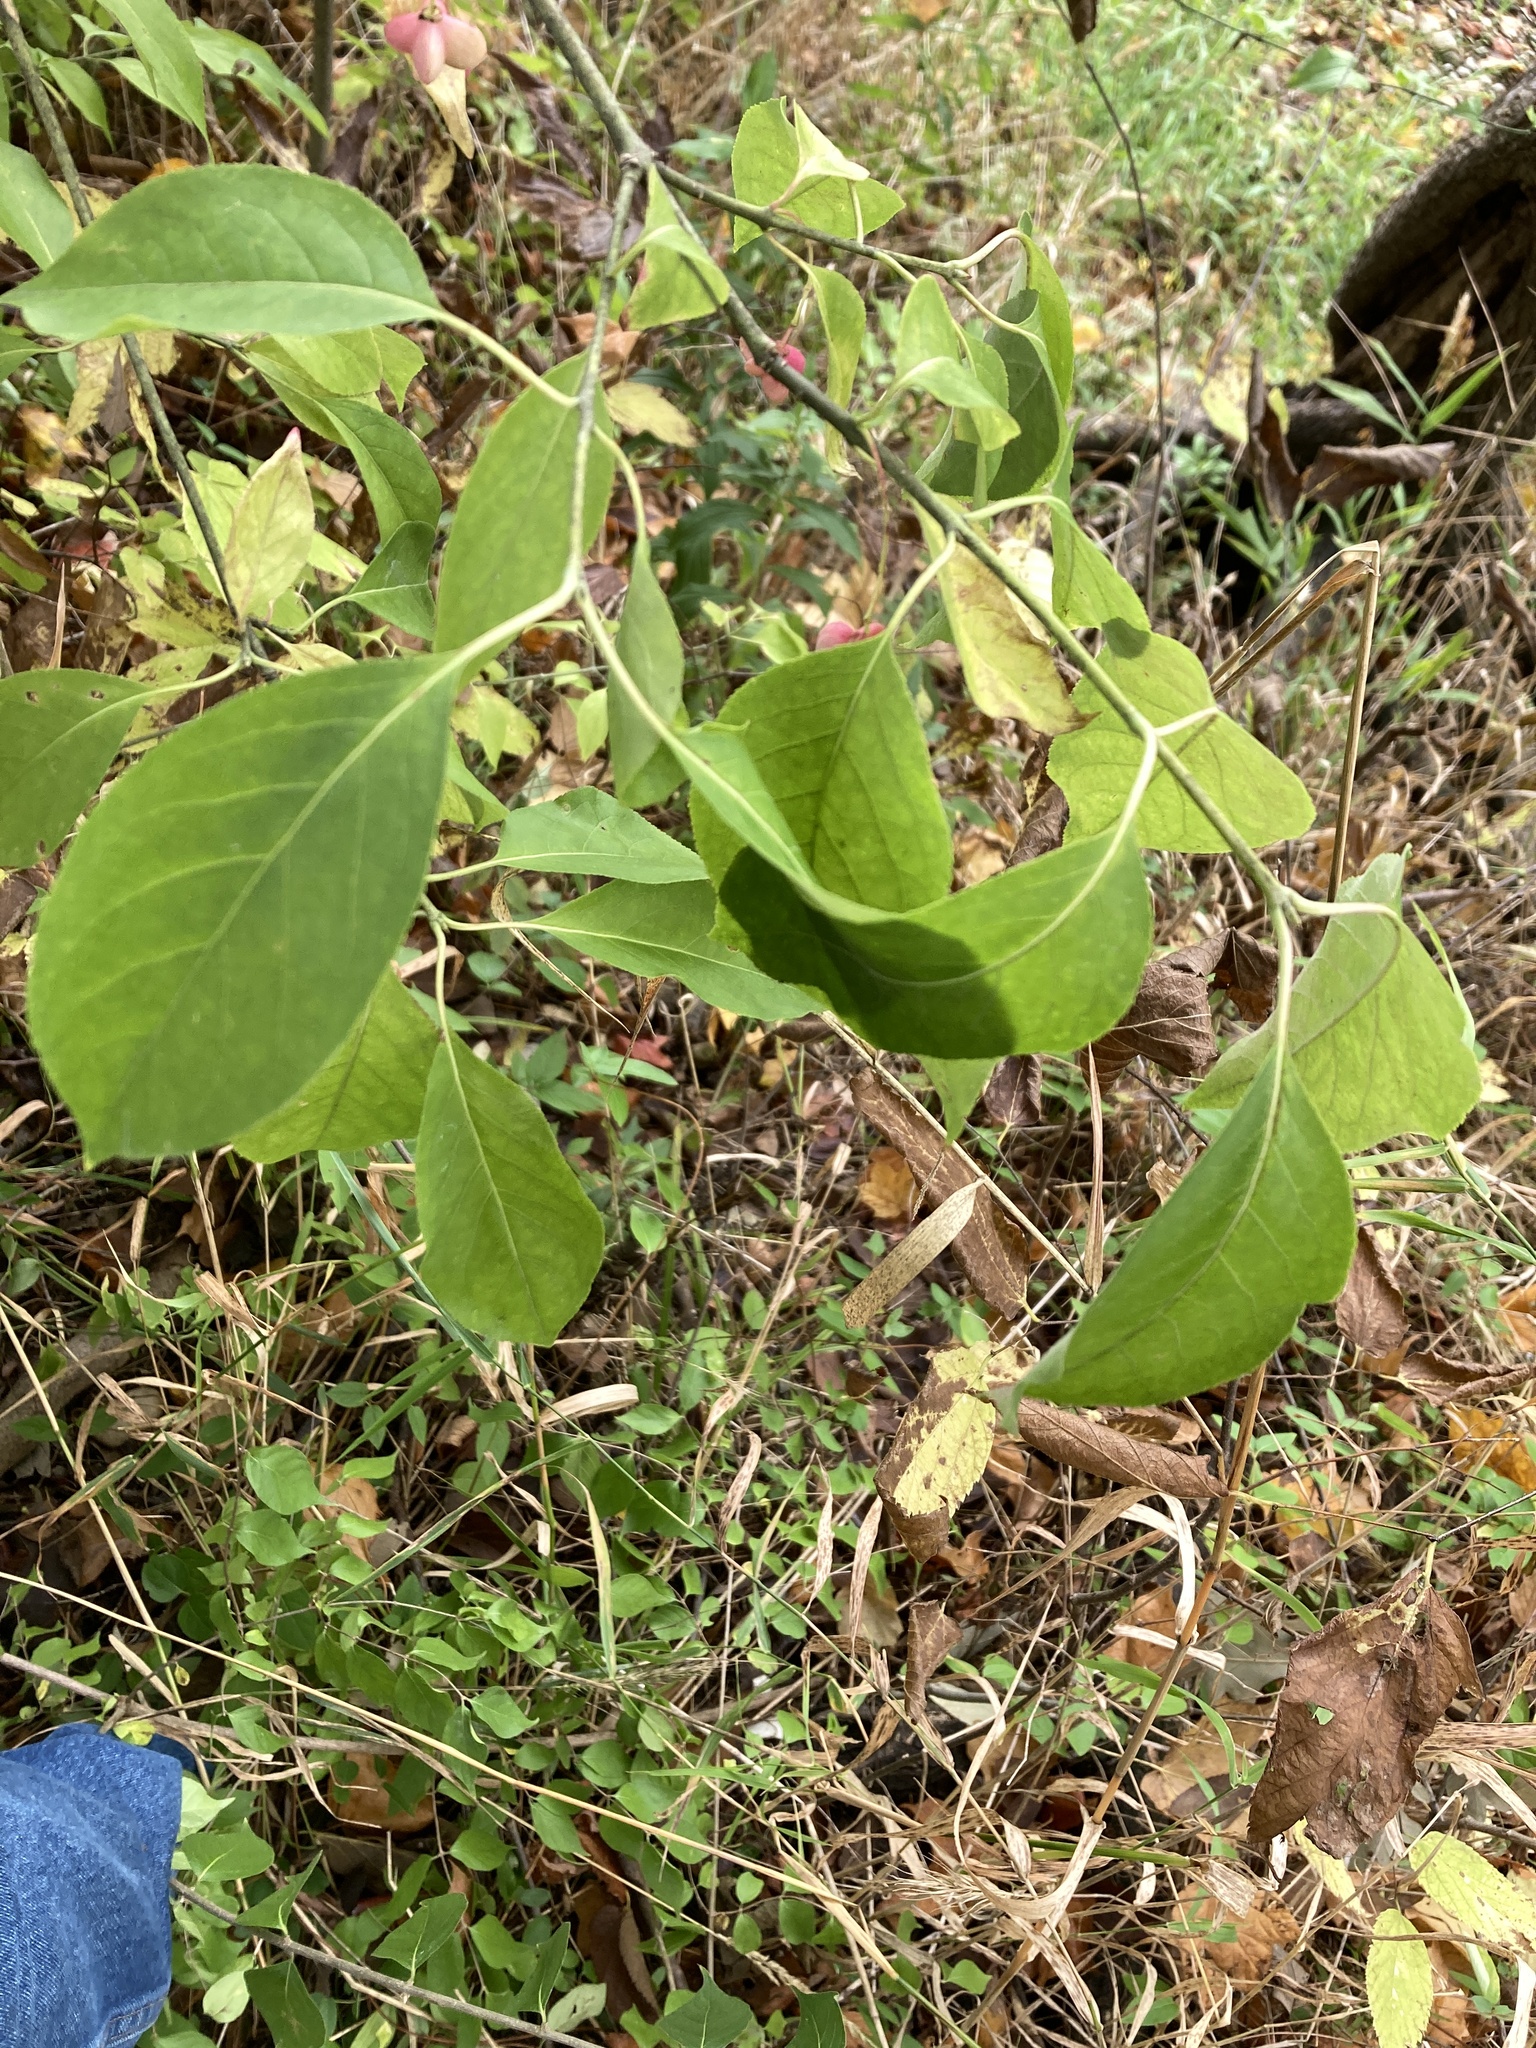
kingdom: Plantae
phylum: Tracheophyta
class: Magnoliopsida
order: Celastrales
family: Celastraceae
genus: Euonymus
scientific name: Euonymus atropurpureus
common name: Eastern wahoo
